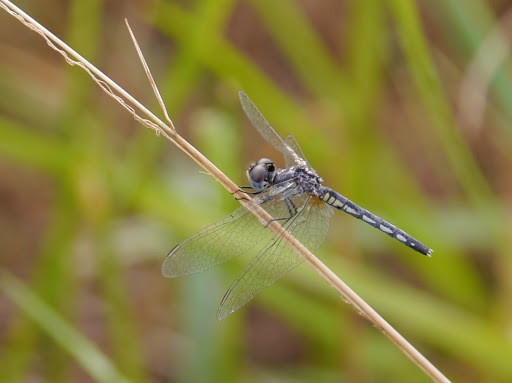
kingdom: Animalia
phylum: Arthropoda
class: Insecta
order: Odonata
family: Libellulidae
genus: Diplacodes
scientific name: Diplacodes deminuta
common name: Little percher
